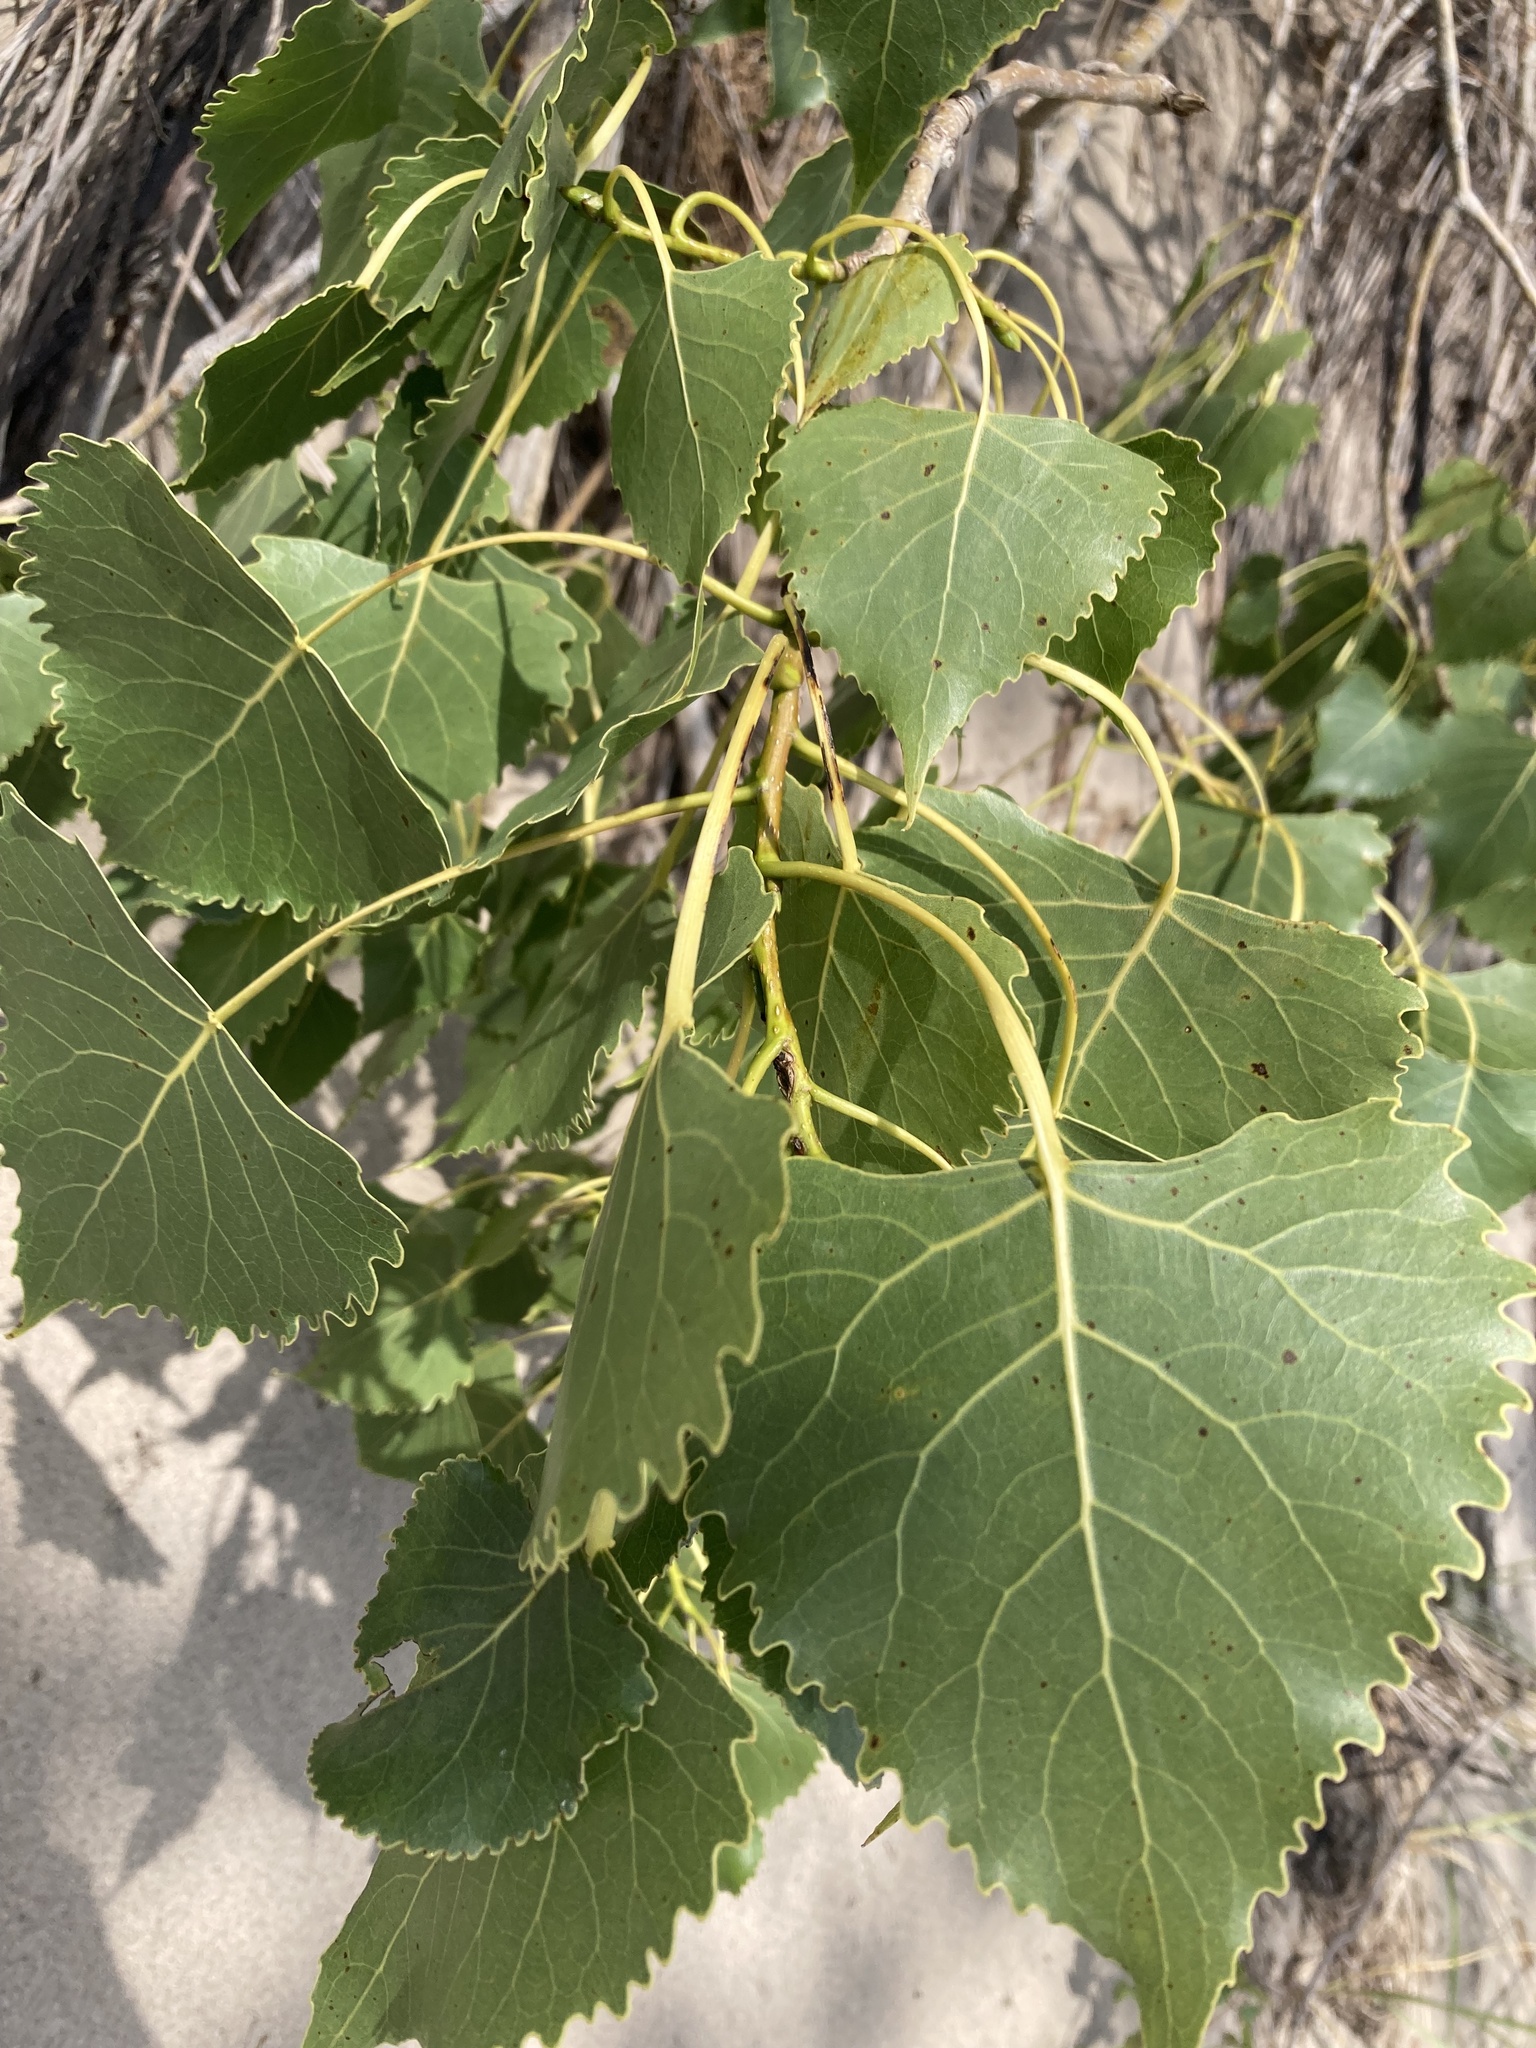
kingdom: Plantae
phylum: Tracheophyta
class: Magnoliopsida
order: Malpighiales
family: Salicaceae
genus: Populus
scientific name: Populus deltoides
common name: Eastern cottonwood
